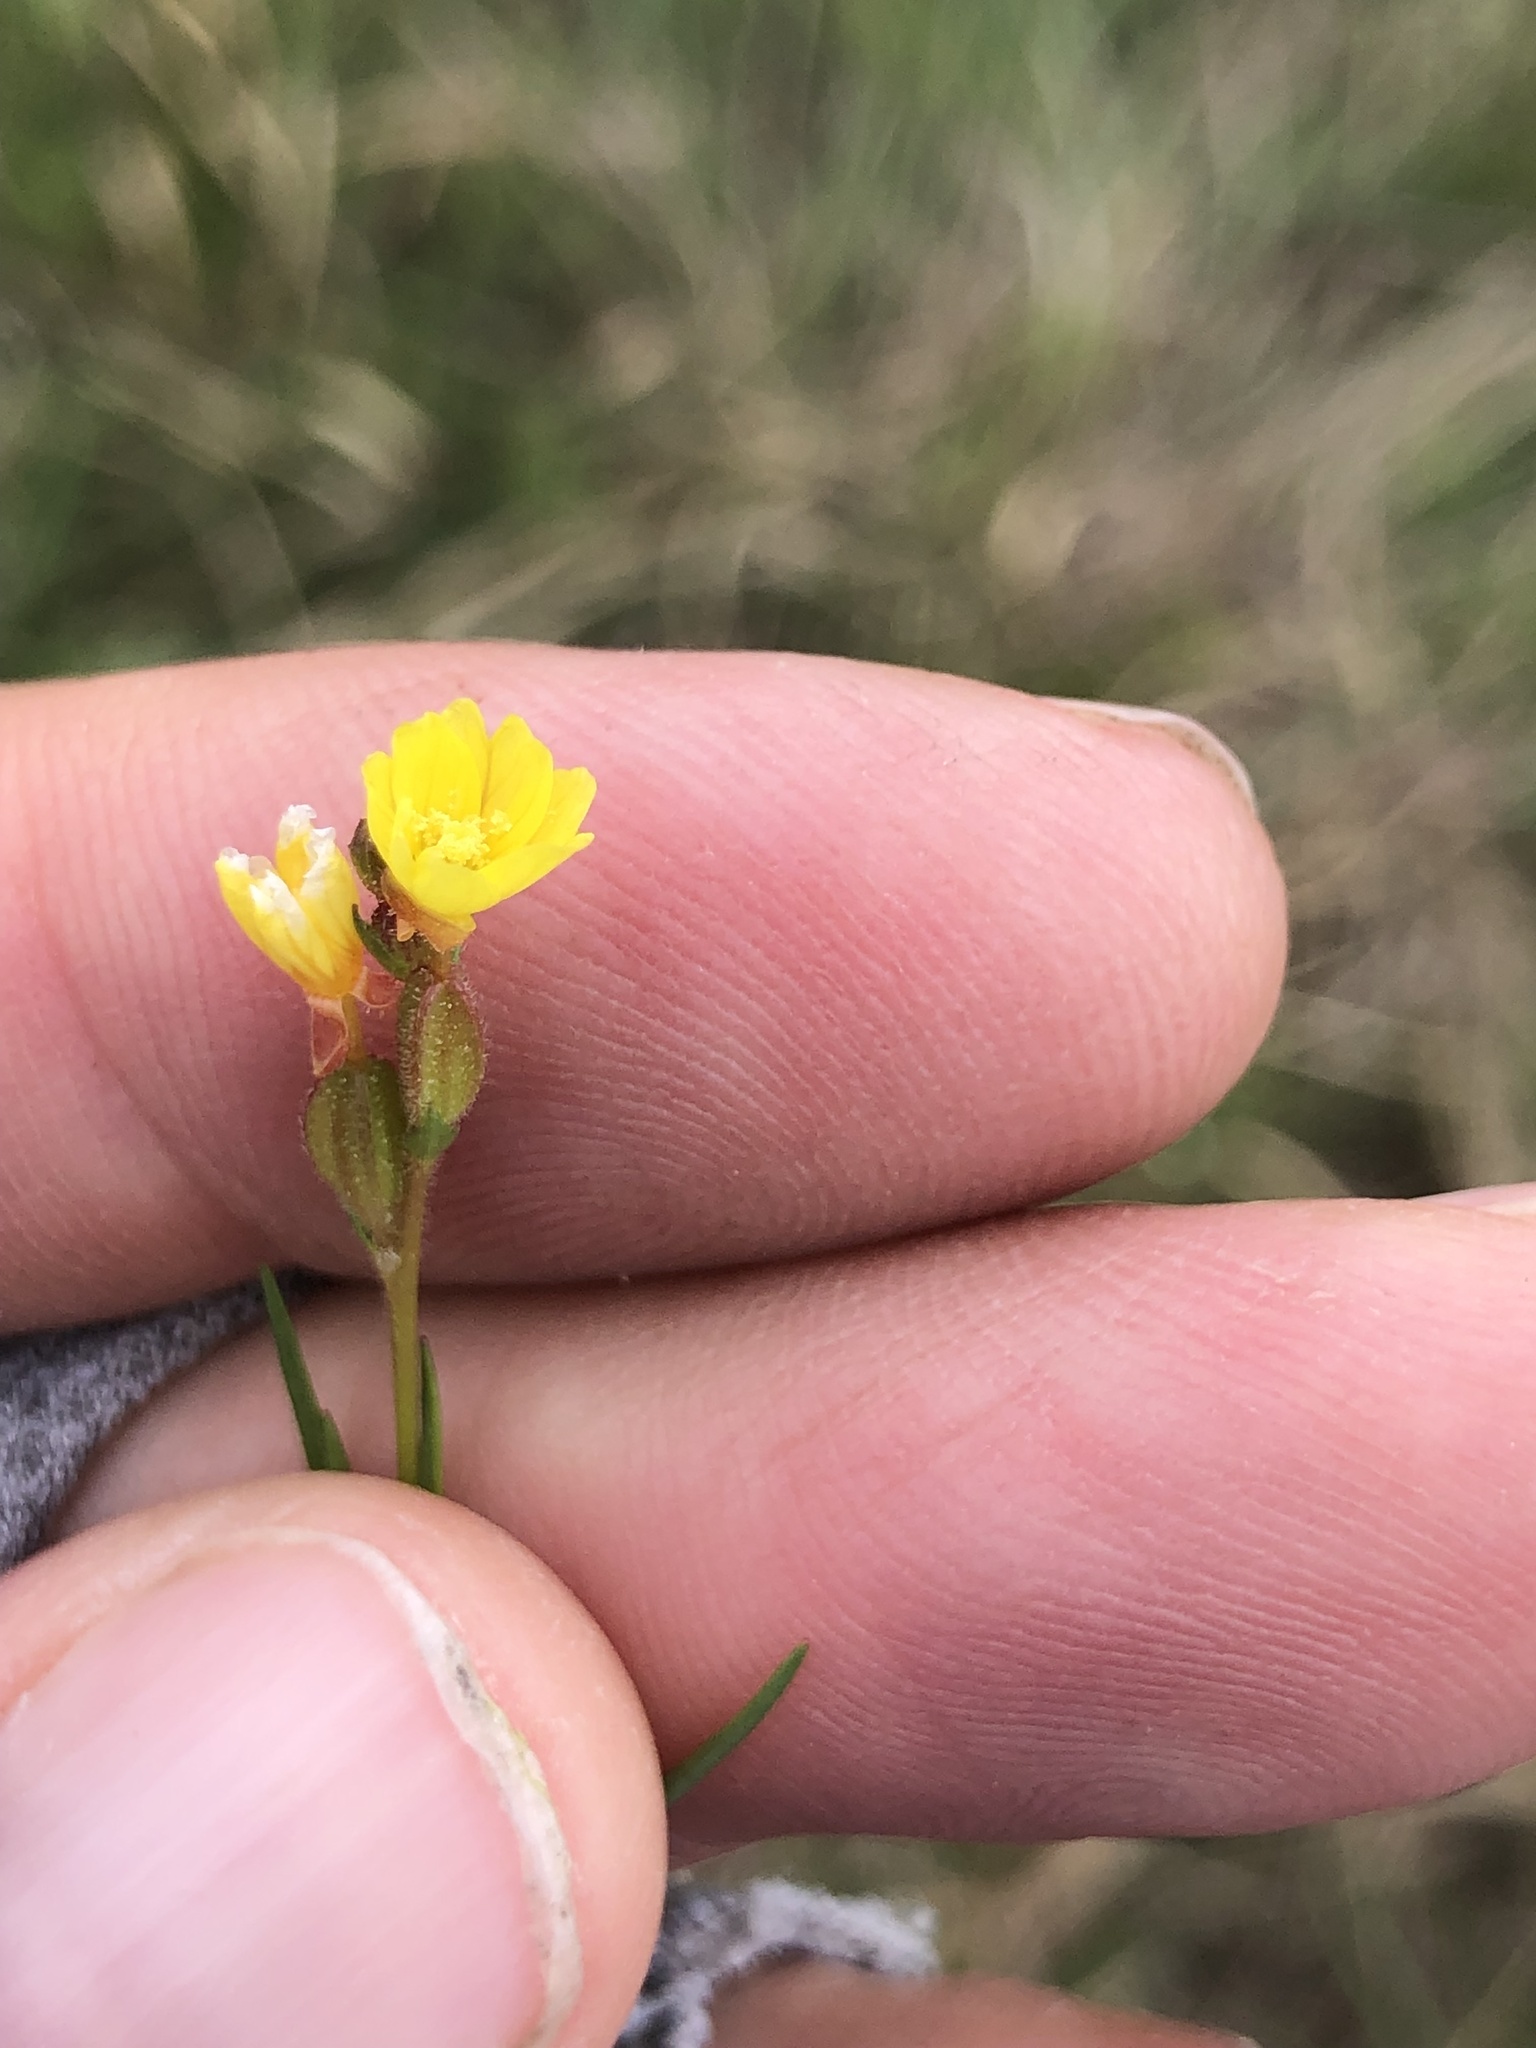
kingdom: Plantae
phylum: Tracheophyta
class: Magnoliopsida
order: Myrtales
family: Onagraceae
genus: Oenothera
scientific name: Oenothera linifolia
